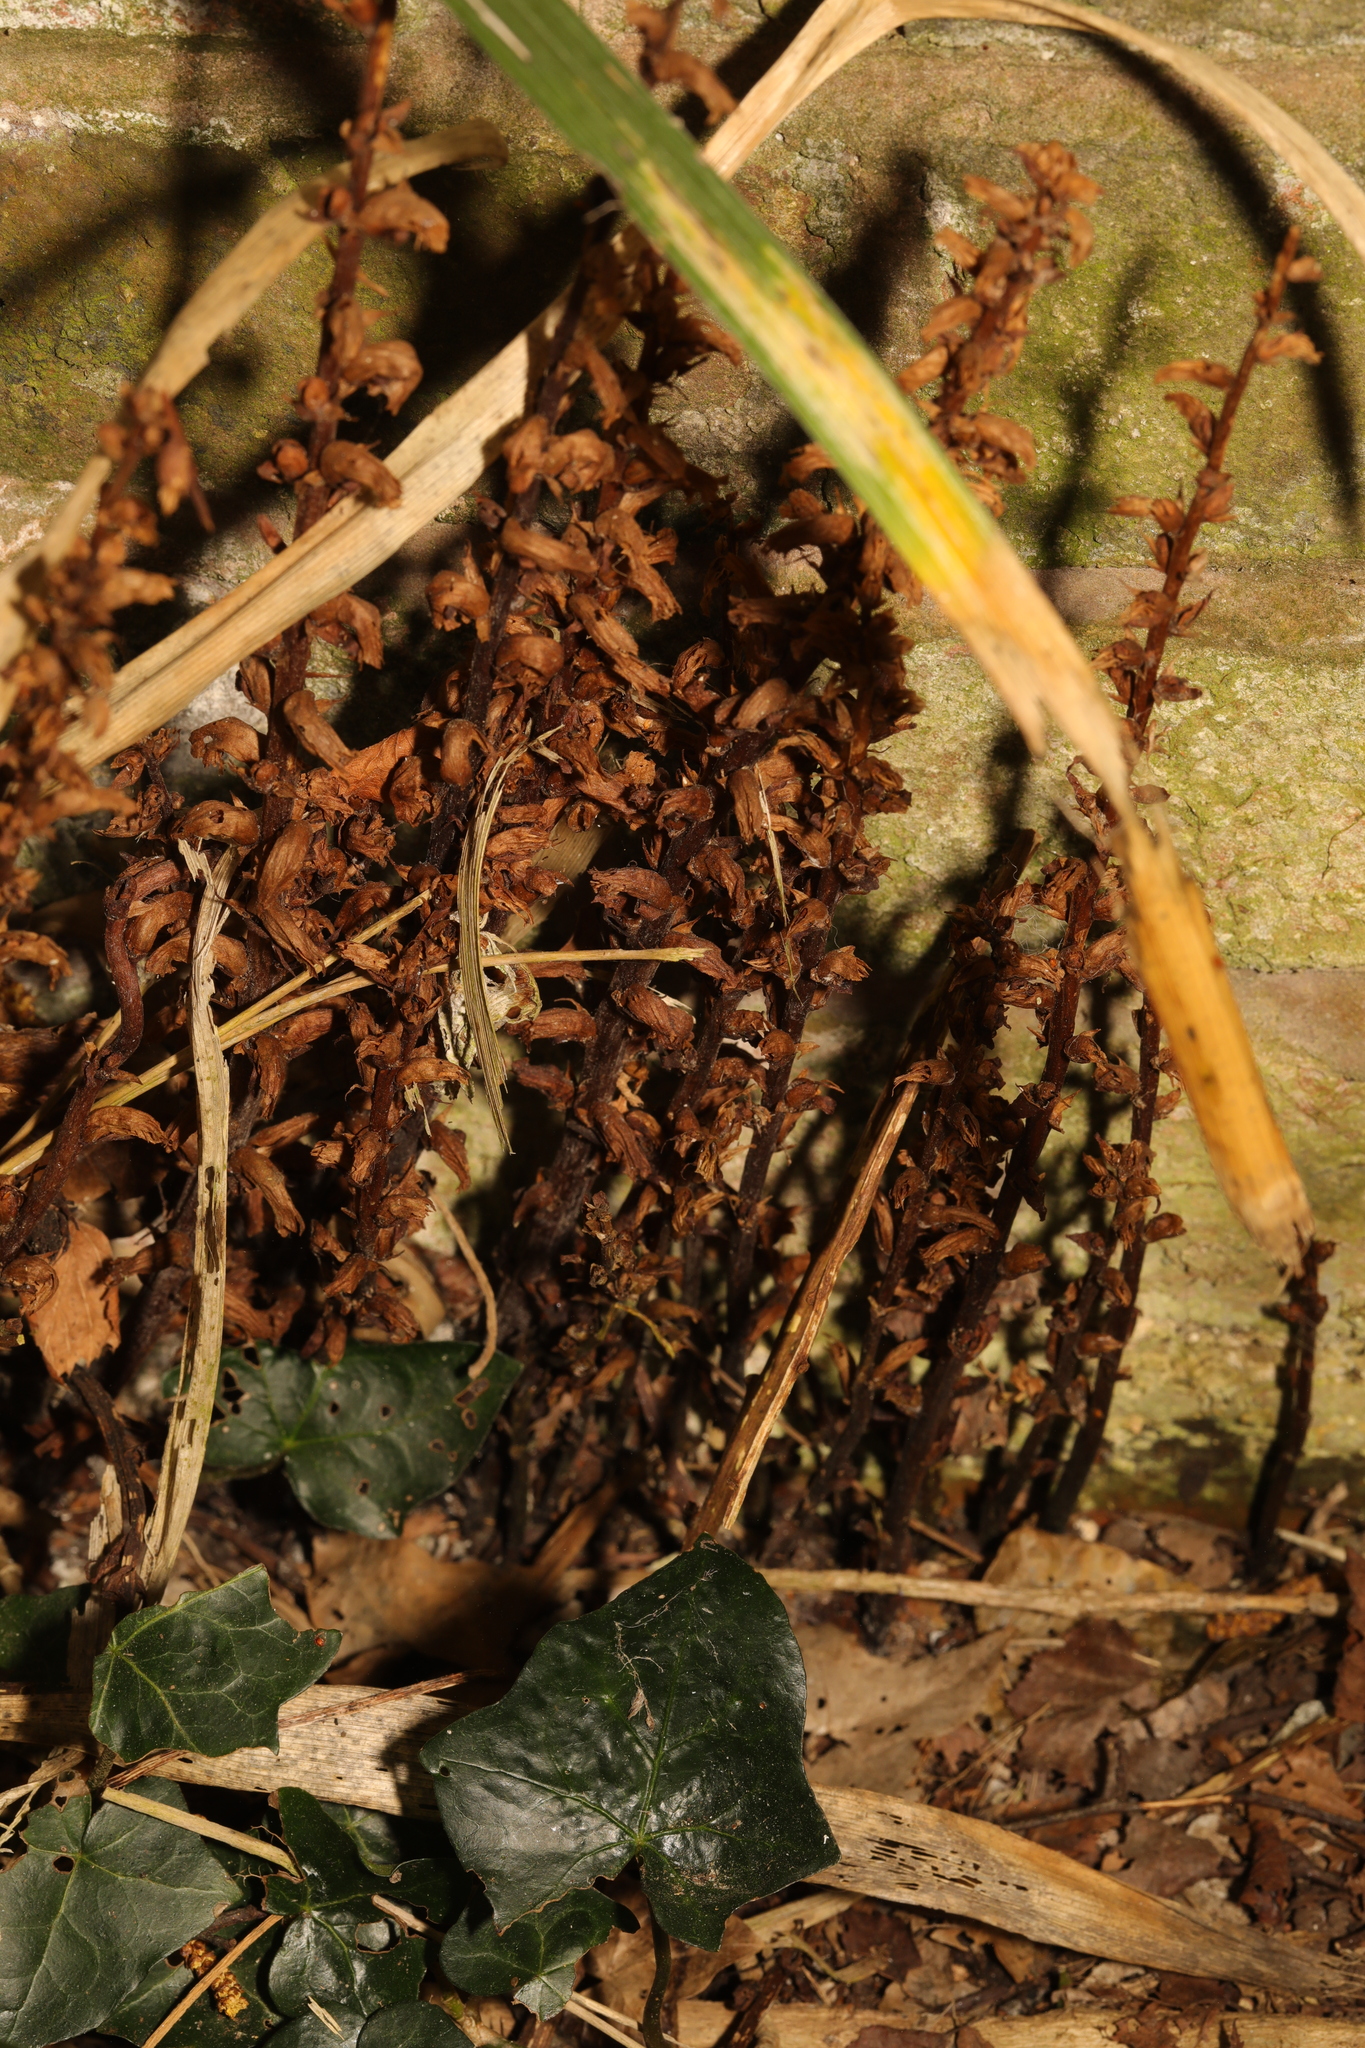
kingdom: Plantae
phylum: Tracheophyta
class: Magnoliopsida
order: Lamiales
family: Orobanchaceae
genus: Orobanche
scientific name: Orobanche hederae
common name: Ivy broomrape
